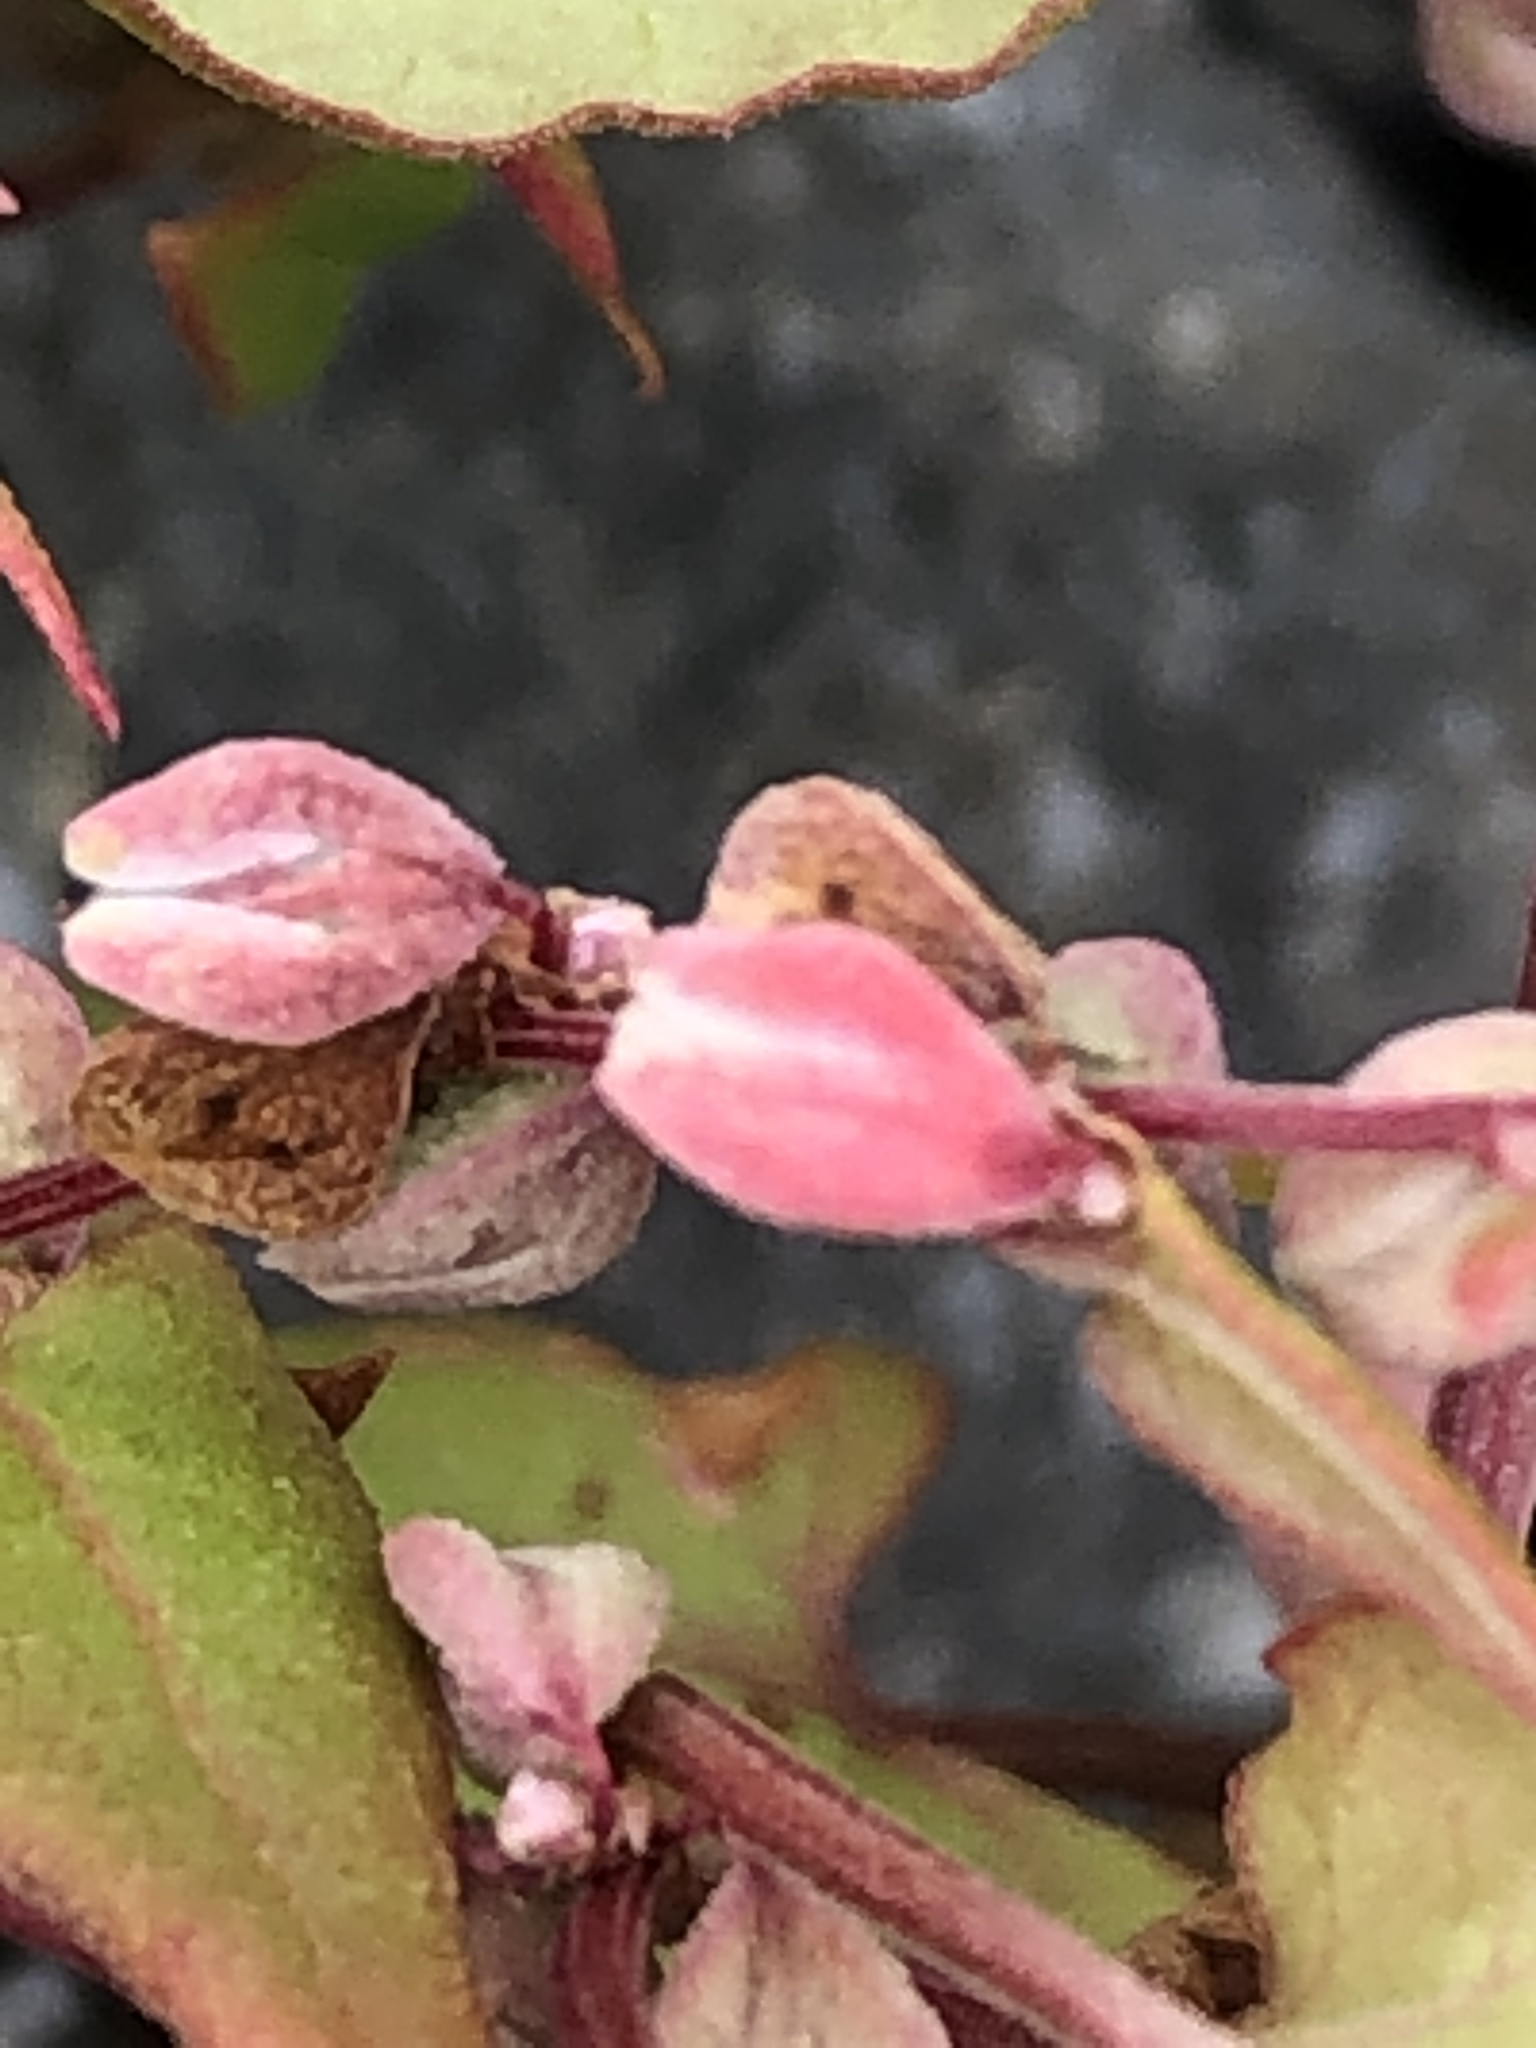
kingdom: Plantae
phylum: Tracheophyta
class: Magnoliopsida
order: Caryophyllales
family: Polygonaceae
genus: Fallopia
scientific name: Fallopia convolvulus
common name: Black bindweed
